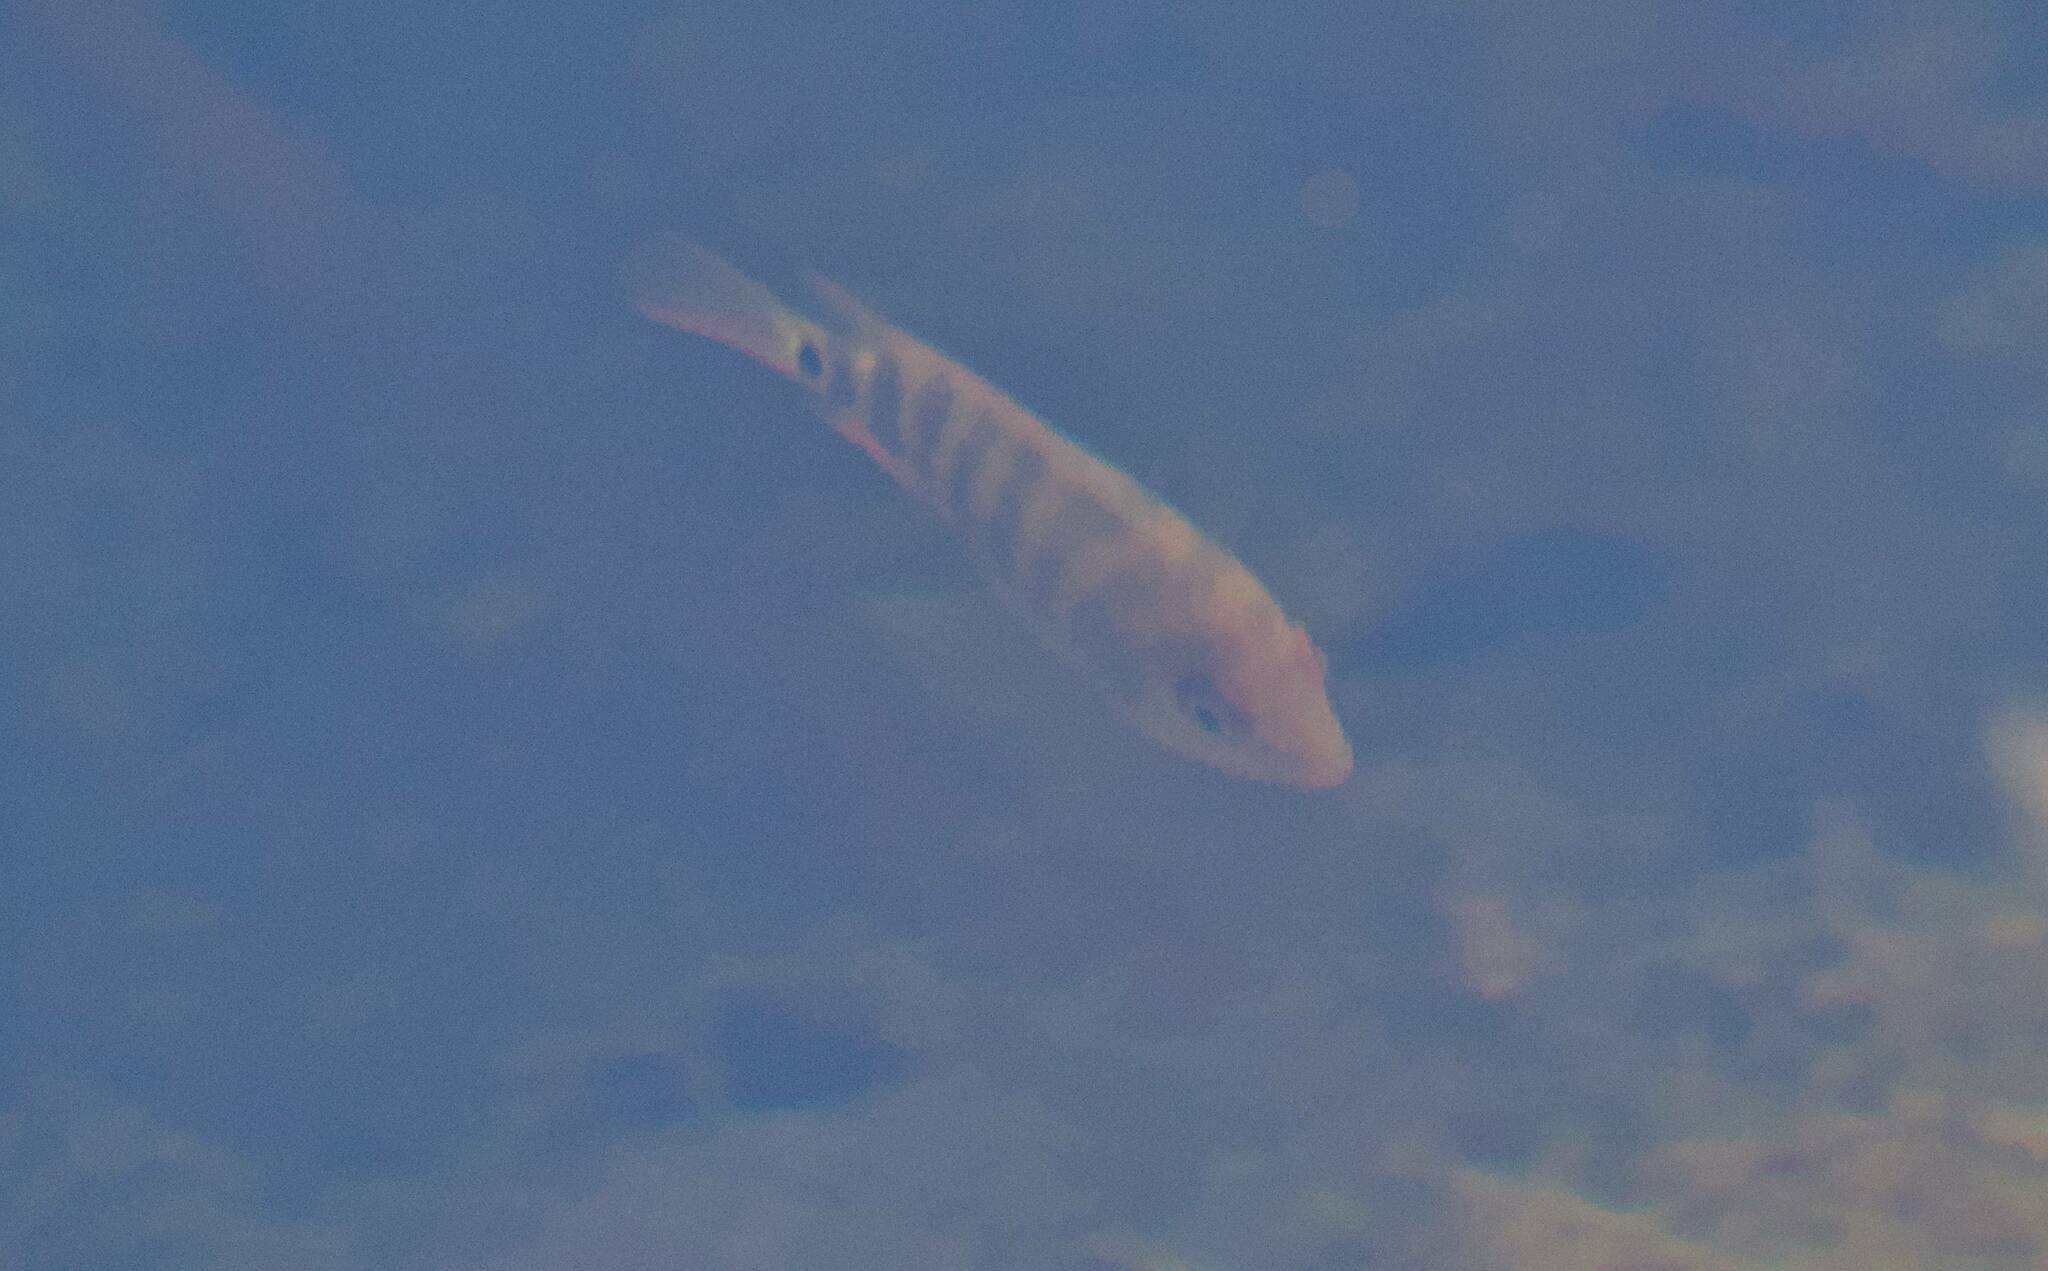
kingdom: Animalia
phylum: Chordata
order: Perciformes
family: Cichlidae
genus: Mayaheros
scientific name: Mayaheros urophthalmus
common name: Mayan cichlid
